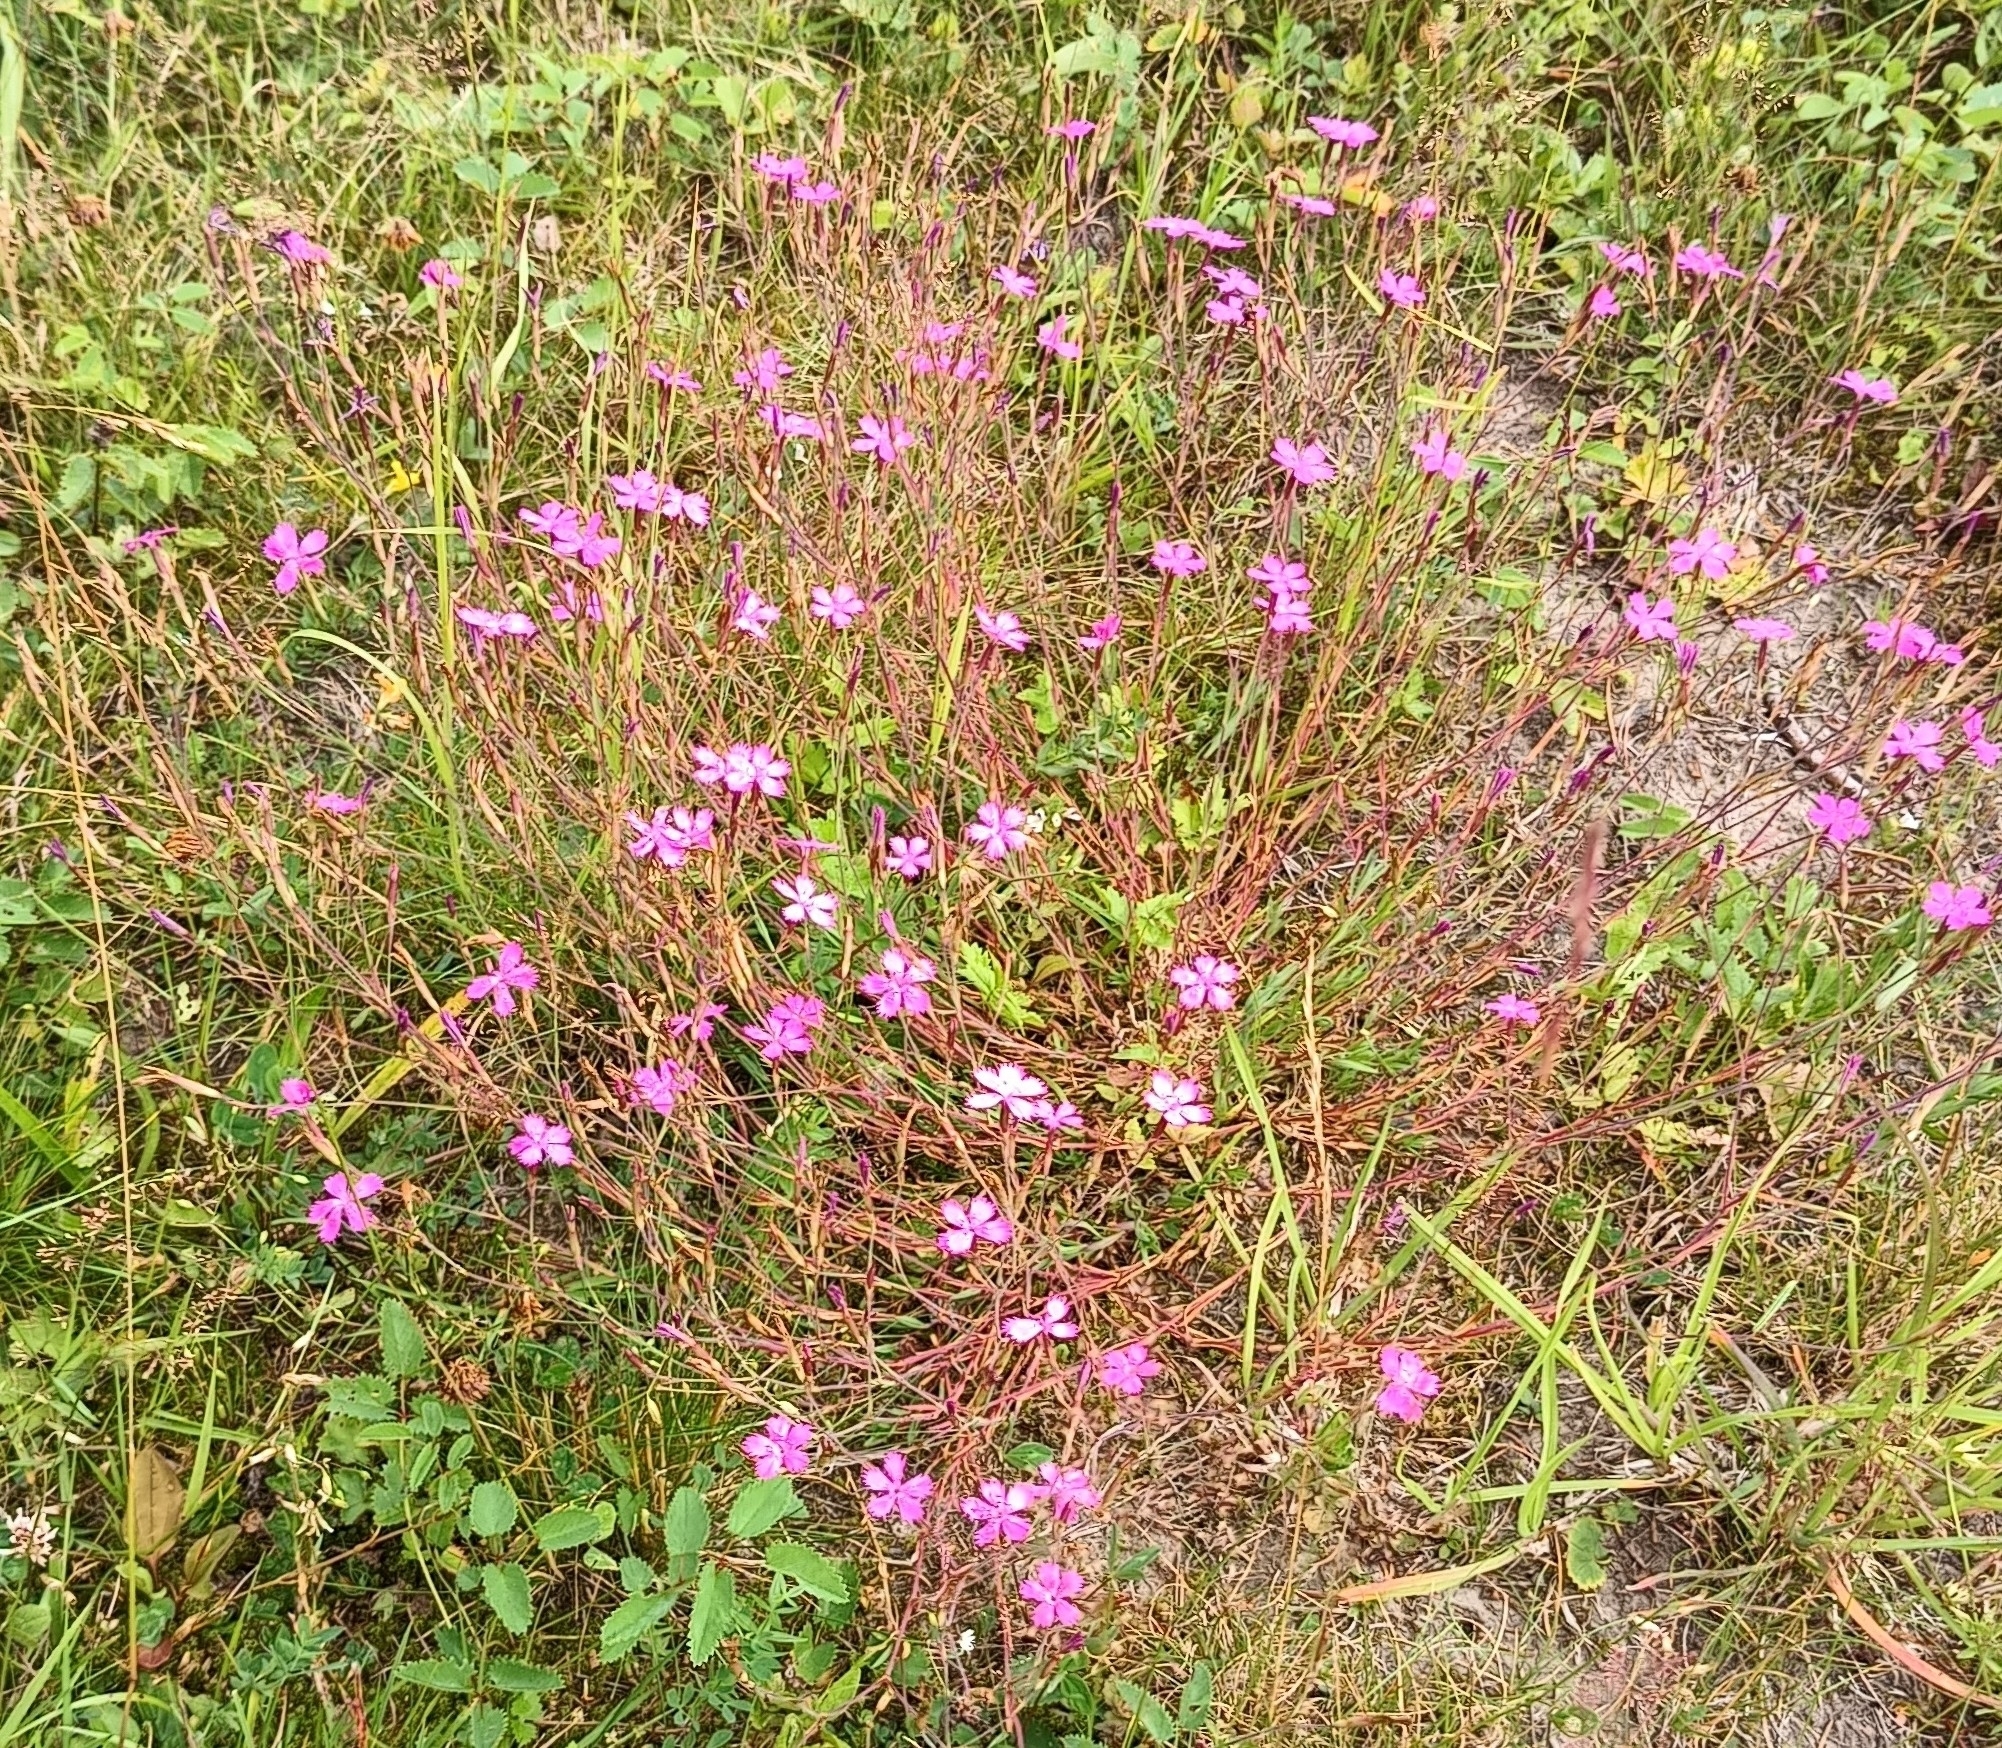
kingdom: Plantae
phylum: Tracheophyta
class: Magnoliopsida
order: Caryophyllales
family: Caryophyllaceae
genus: Dianthus
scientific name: Dianthus deltoides
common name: Maiden pink
